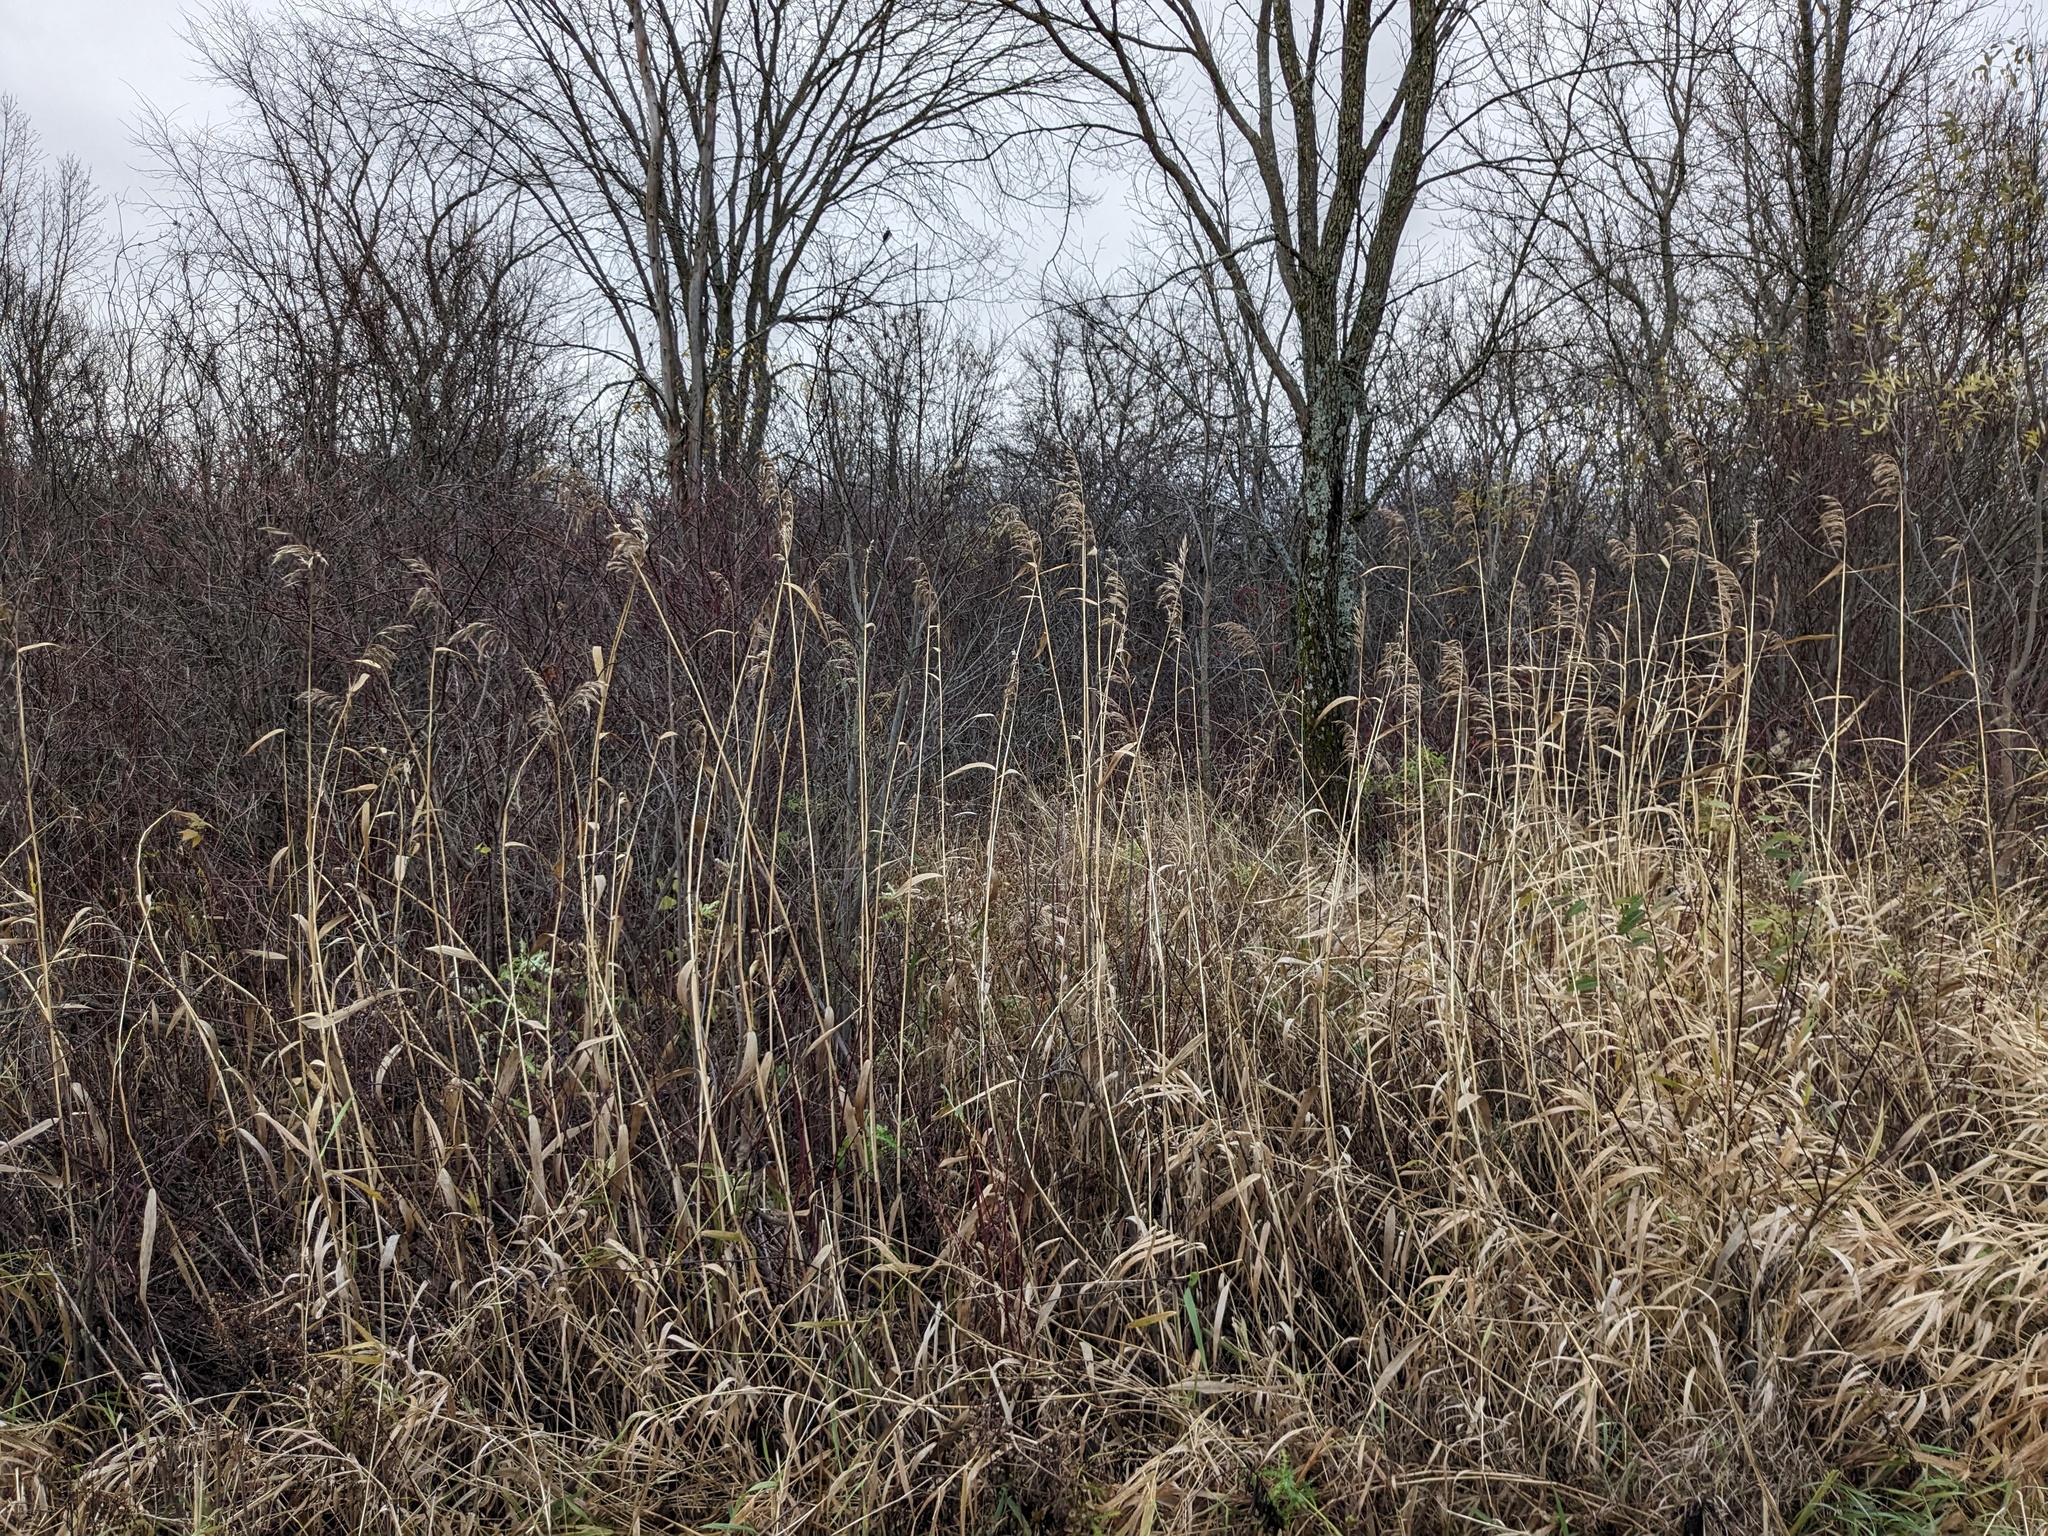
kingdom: Plantae
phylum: Tracheophyta
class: Liliopsida
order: Poales
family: Poaceae
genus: Phragmites
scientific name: Phragmites australis
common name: Common reed
